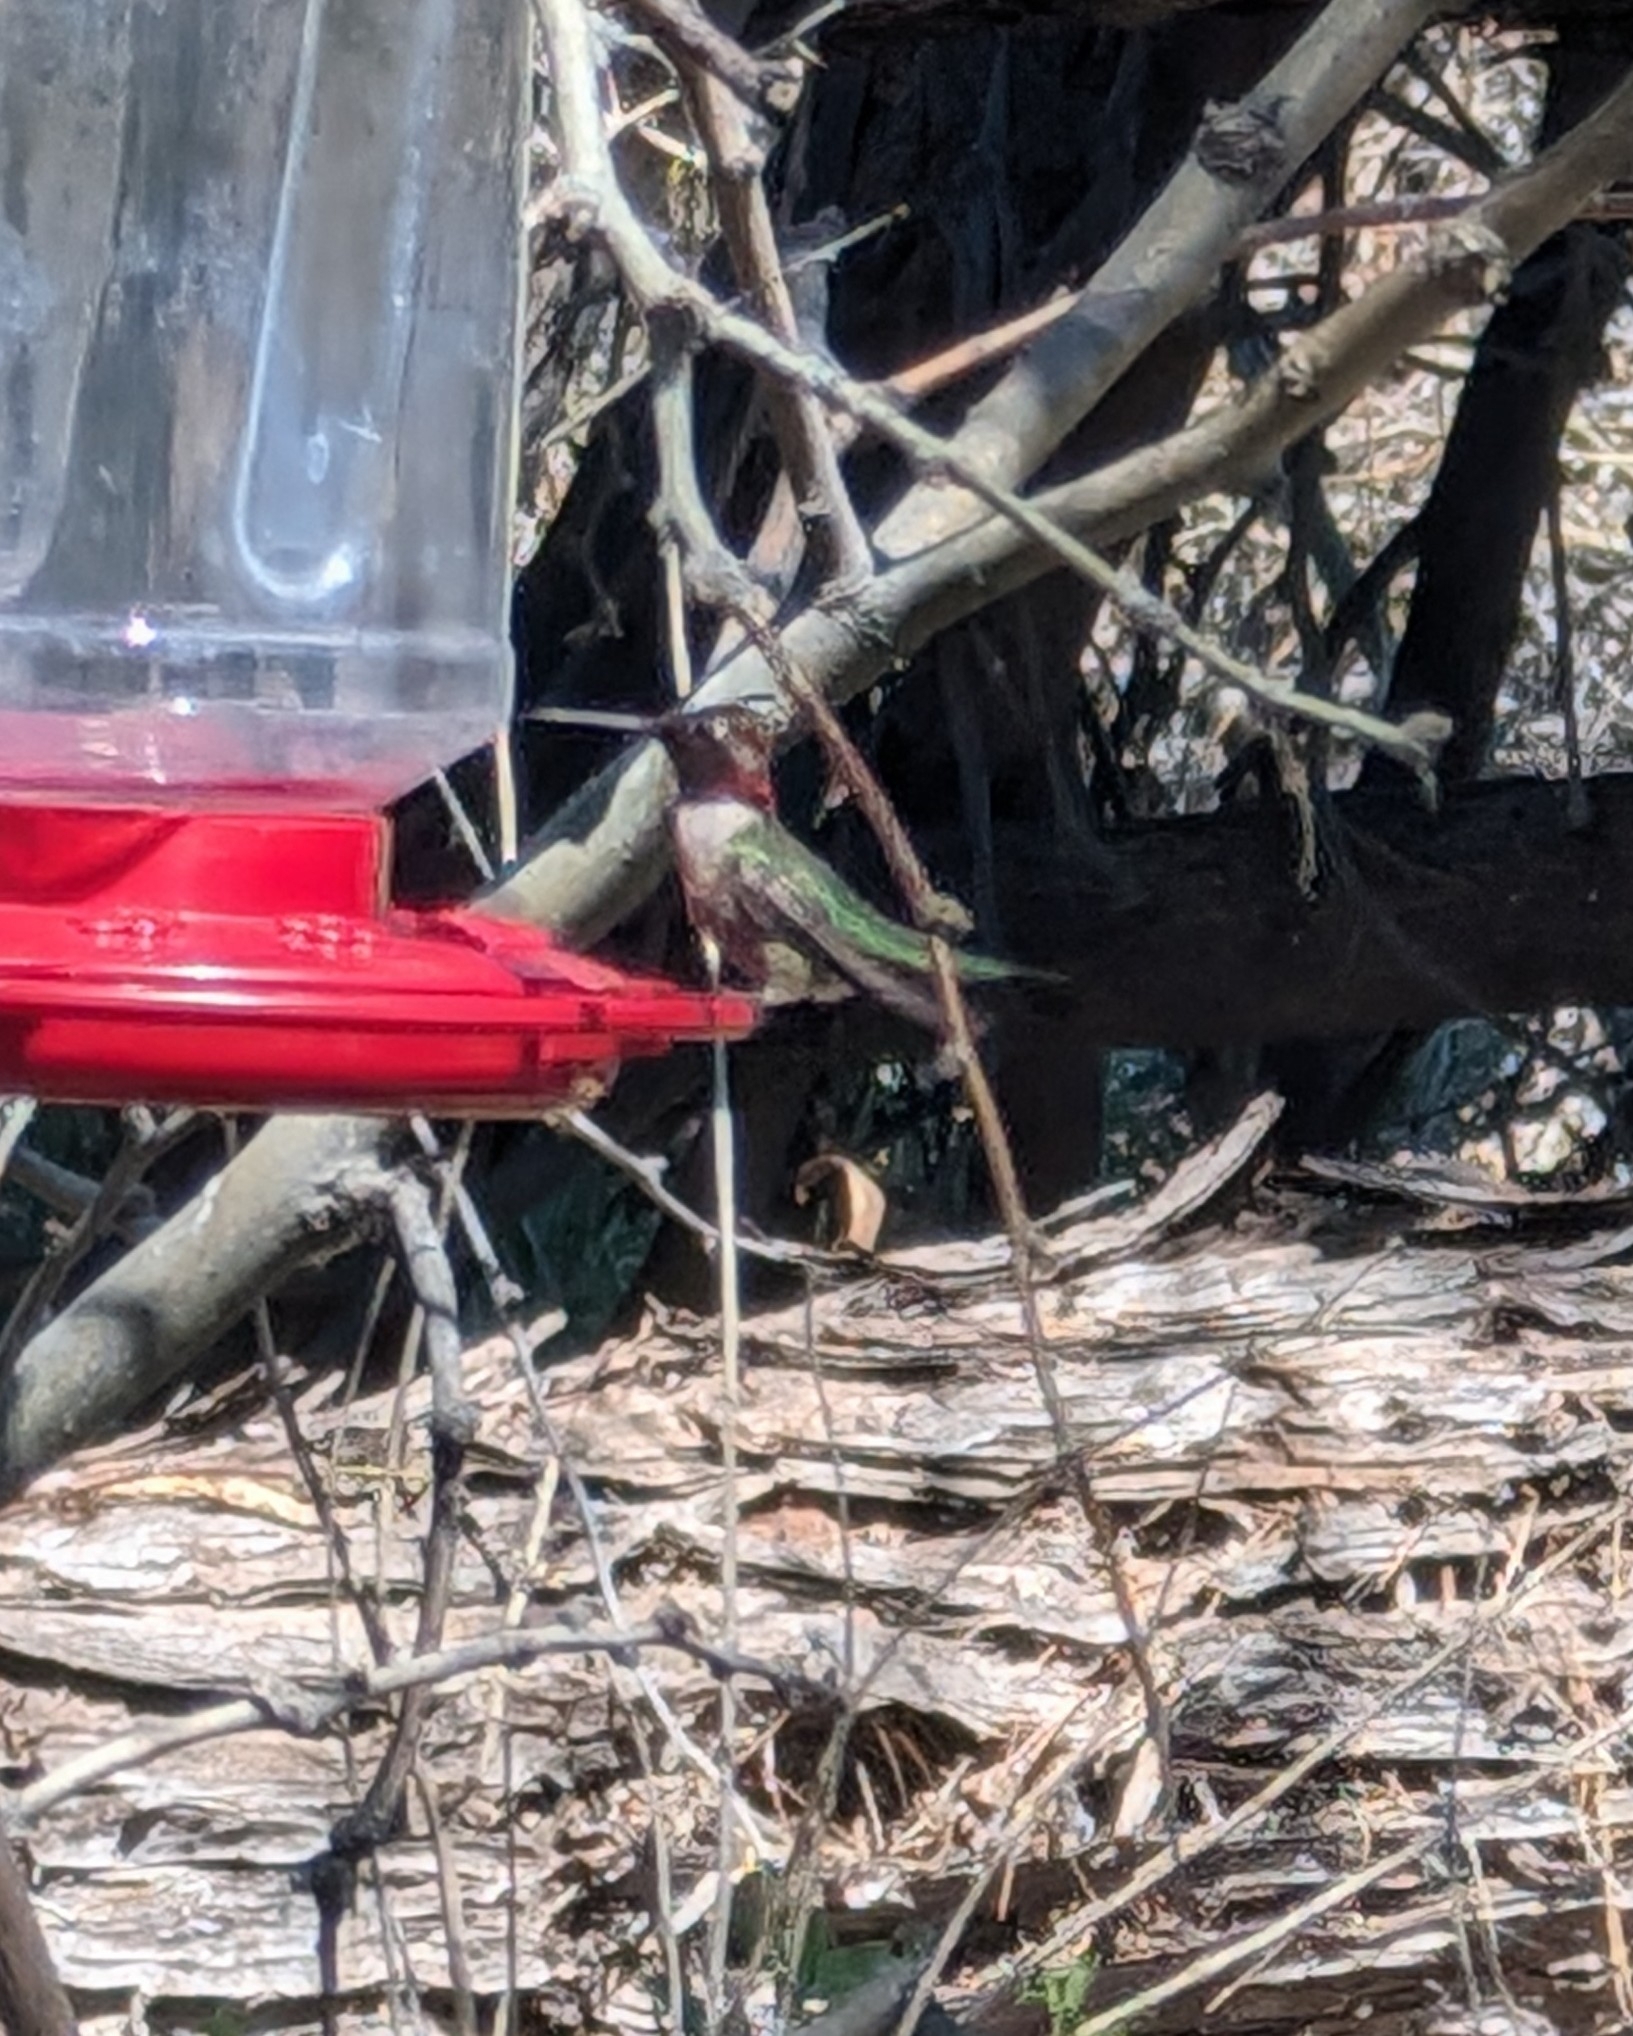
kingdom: Animalia
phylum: Chordata
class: Aves
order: Apodiformes
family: Trochilidae
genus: Calypte
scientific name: Calypte anna
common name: Anna's hummingbird
